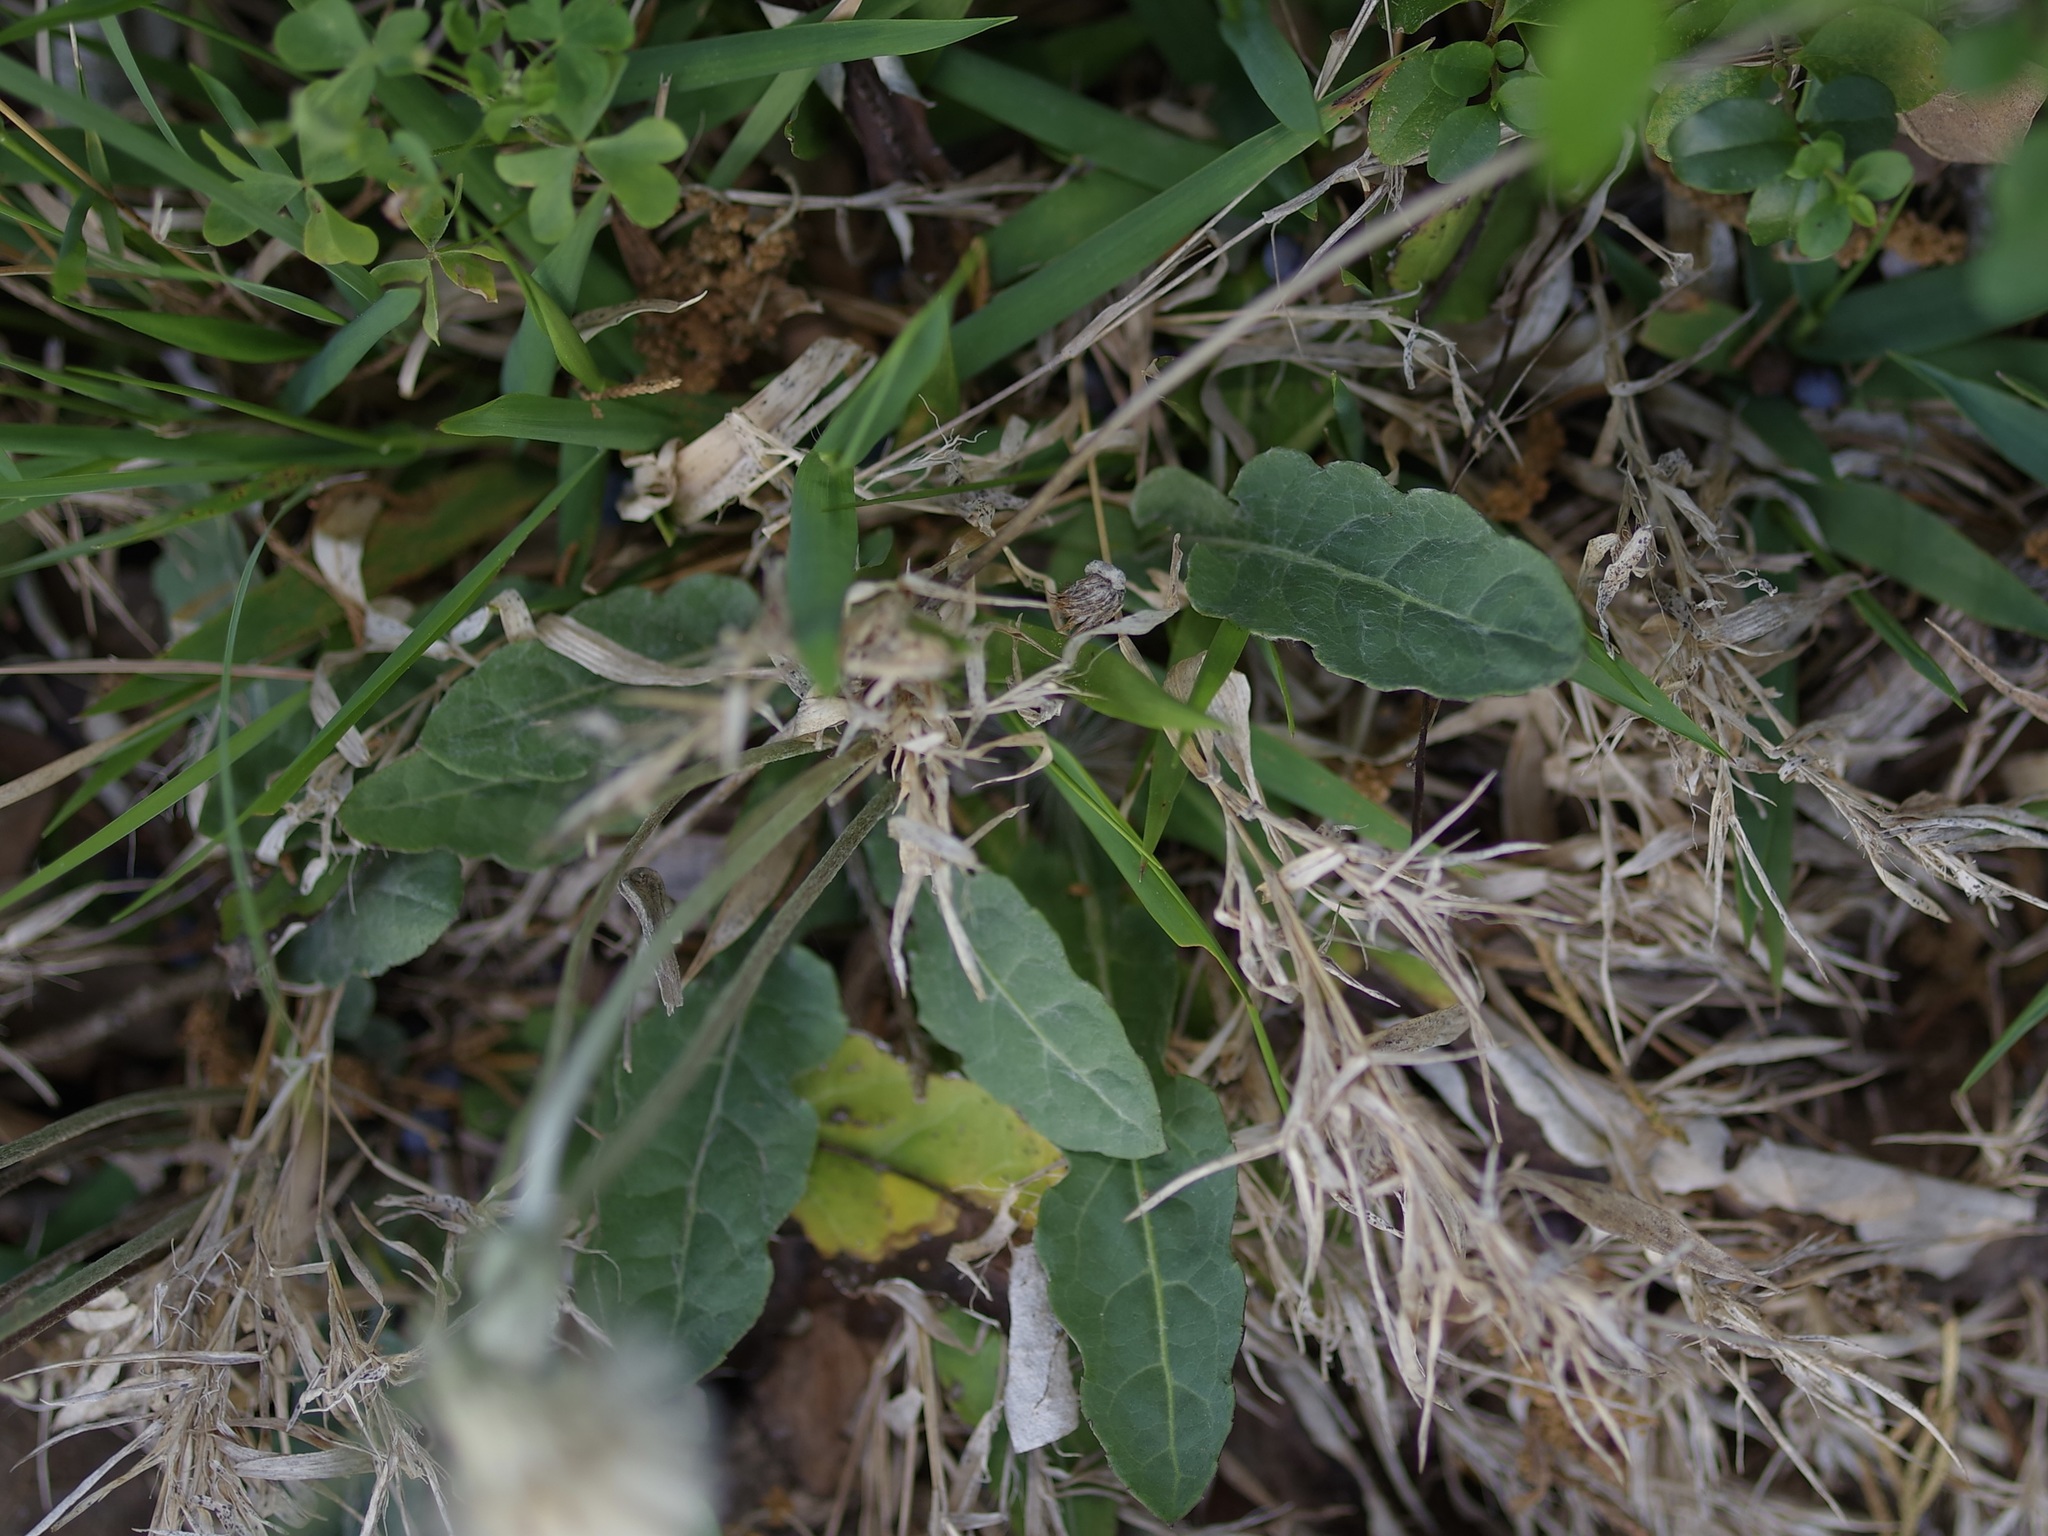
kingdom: Plantae
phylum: Tracheophyta
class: Magnoliopsida
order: Asterales
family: Asteraceae
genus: Chaptalia
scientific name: Chaptalia texana
